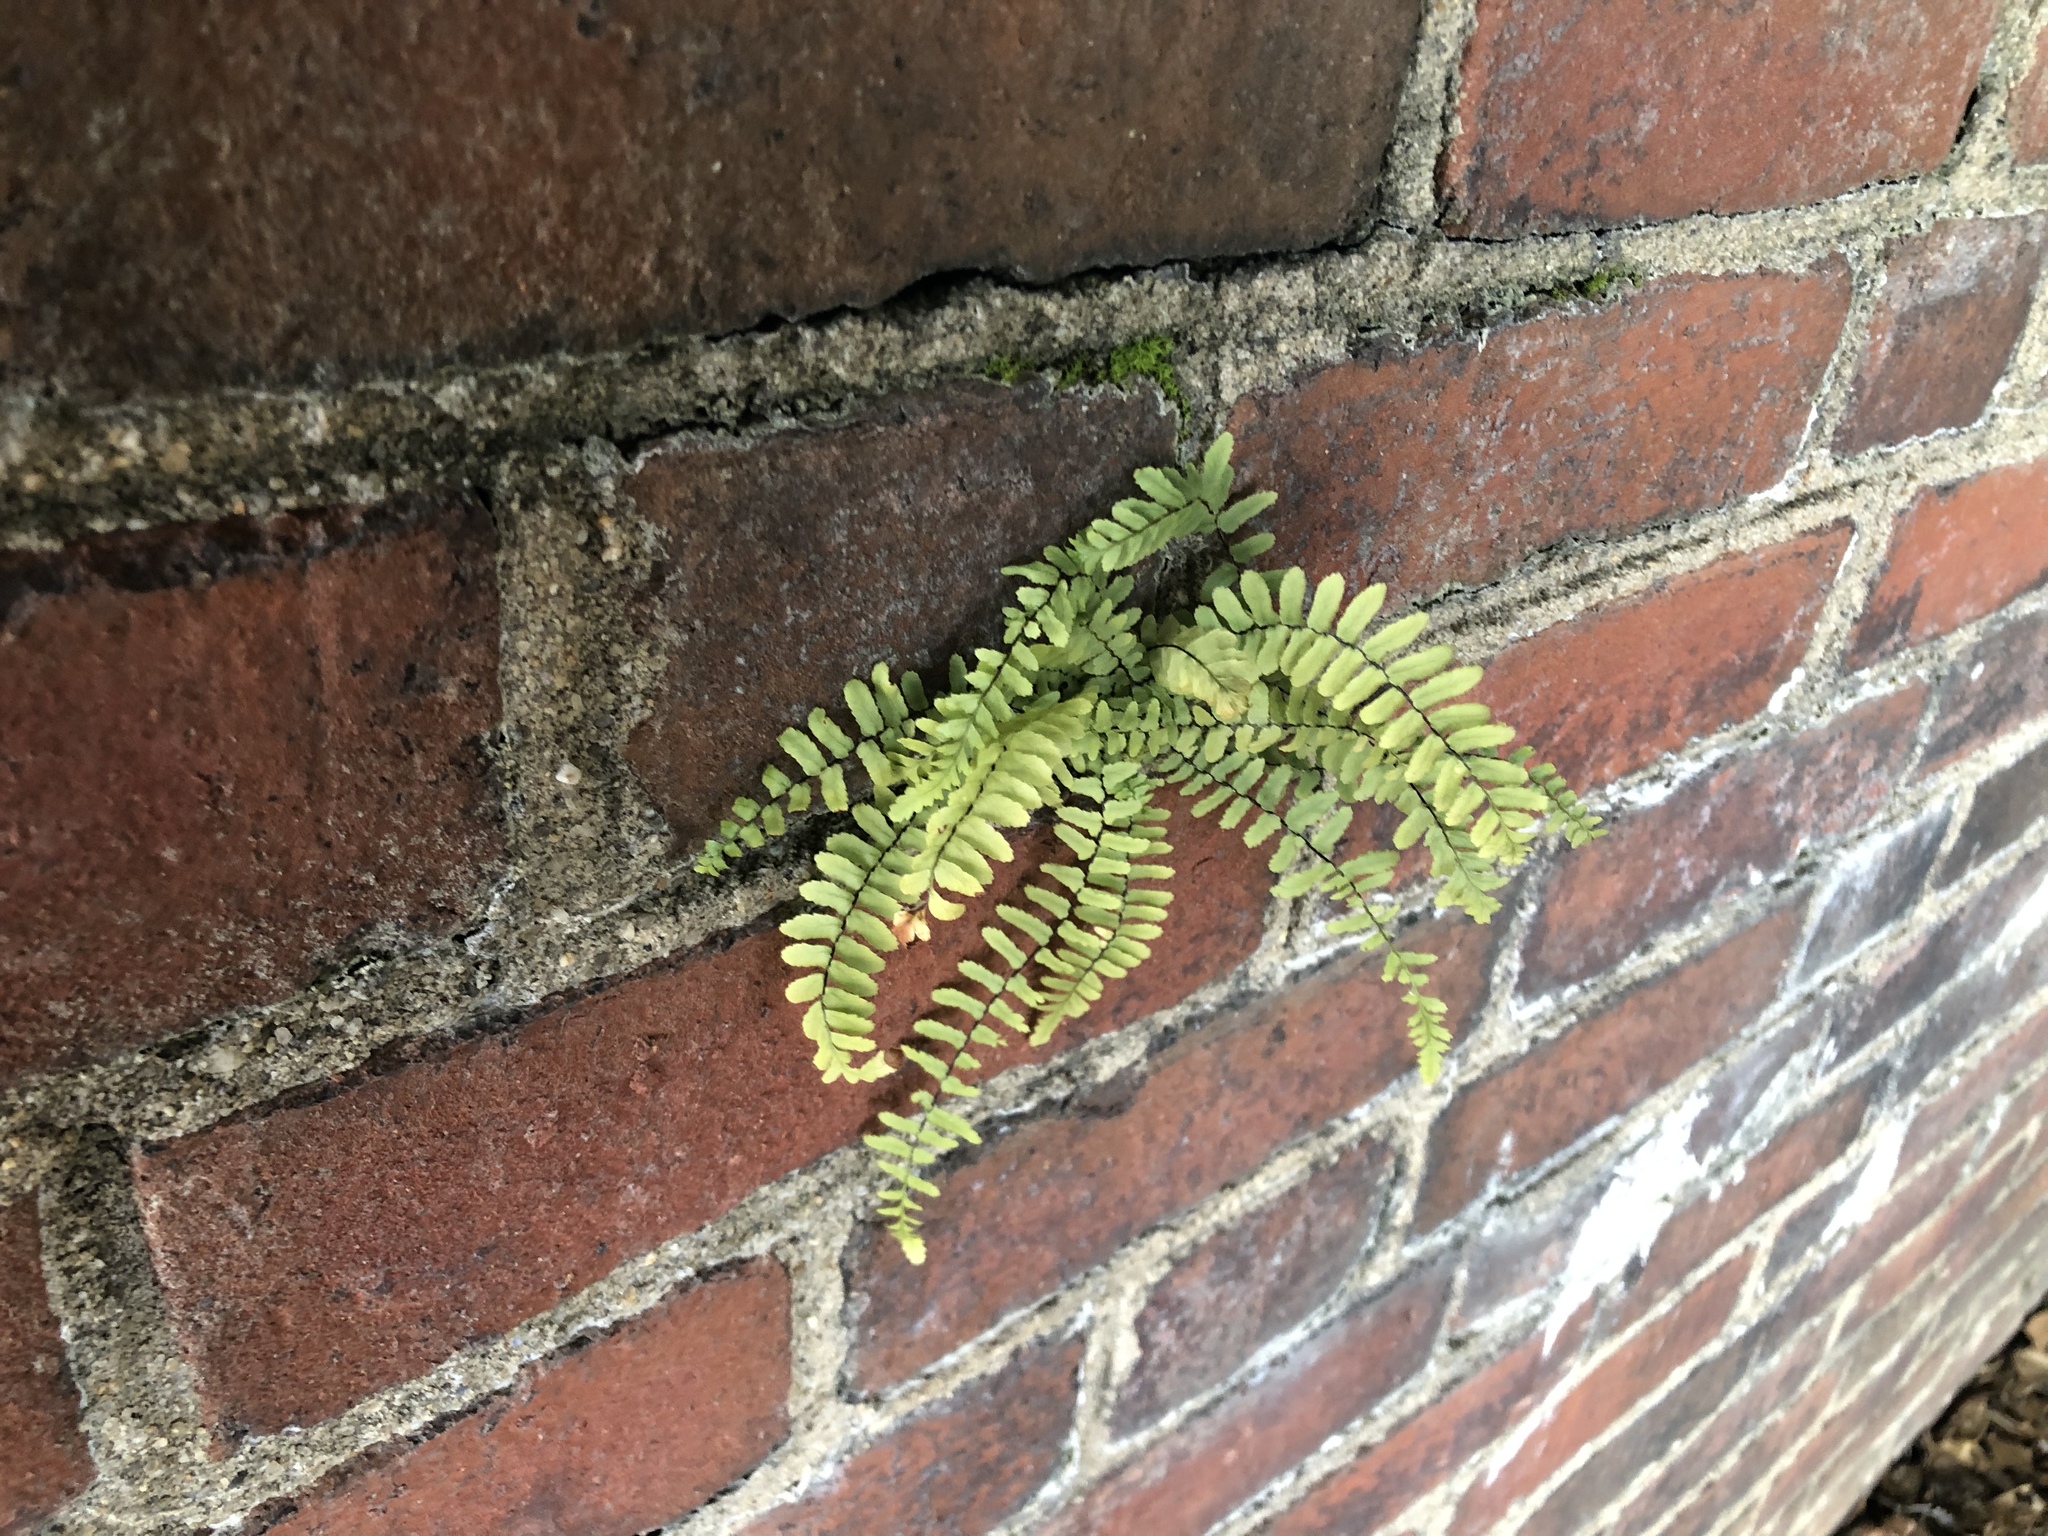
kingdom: Plantae
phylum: Tracheophyta
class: Polypodiopsida
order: Polypodiales
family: Aspleniaceae
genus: Asplenium
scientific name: Asplenium platyneuron
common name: Ebony spleenwort
